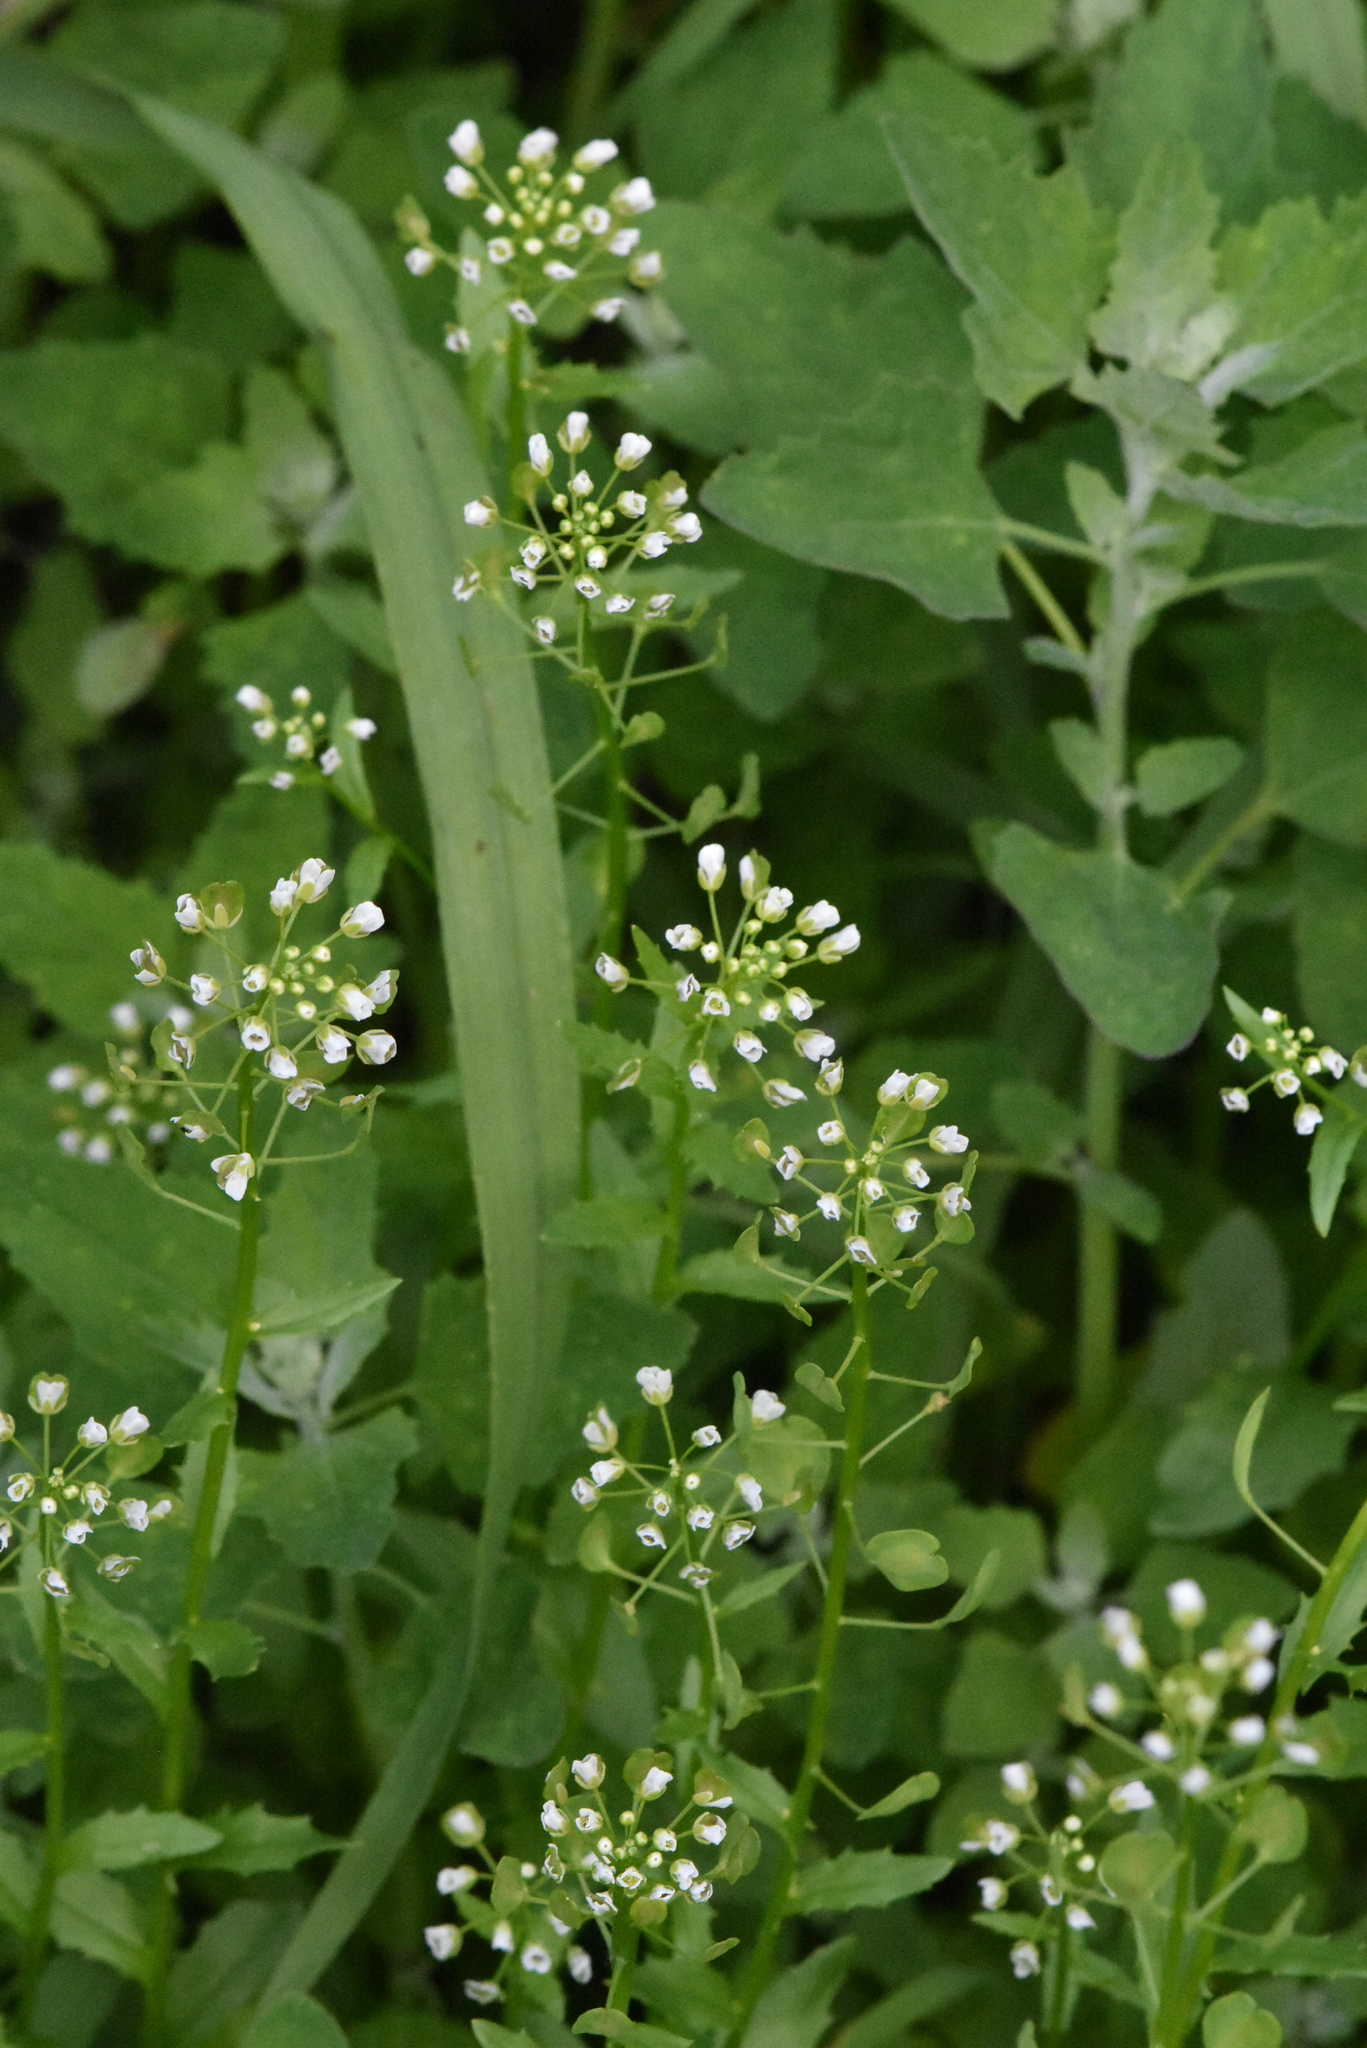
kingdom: Plantae
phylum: Tracheophyta
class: Magnoliopsida
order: Brassicales
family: Brassicaceae
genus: Thlaspi
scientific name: Thlaspi arvense
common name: Field pennycress
